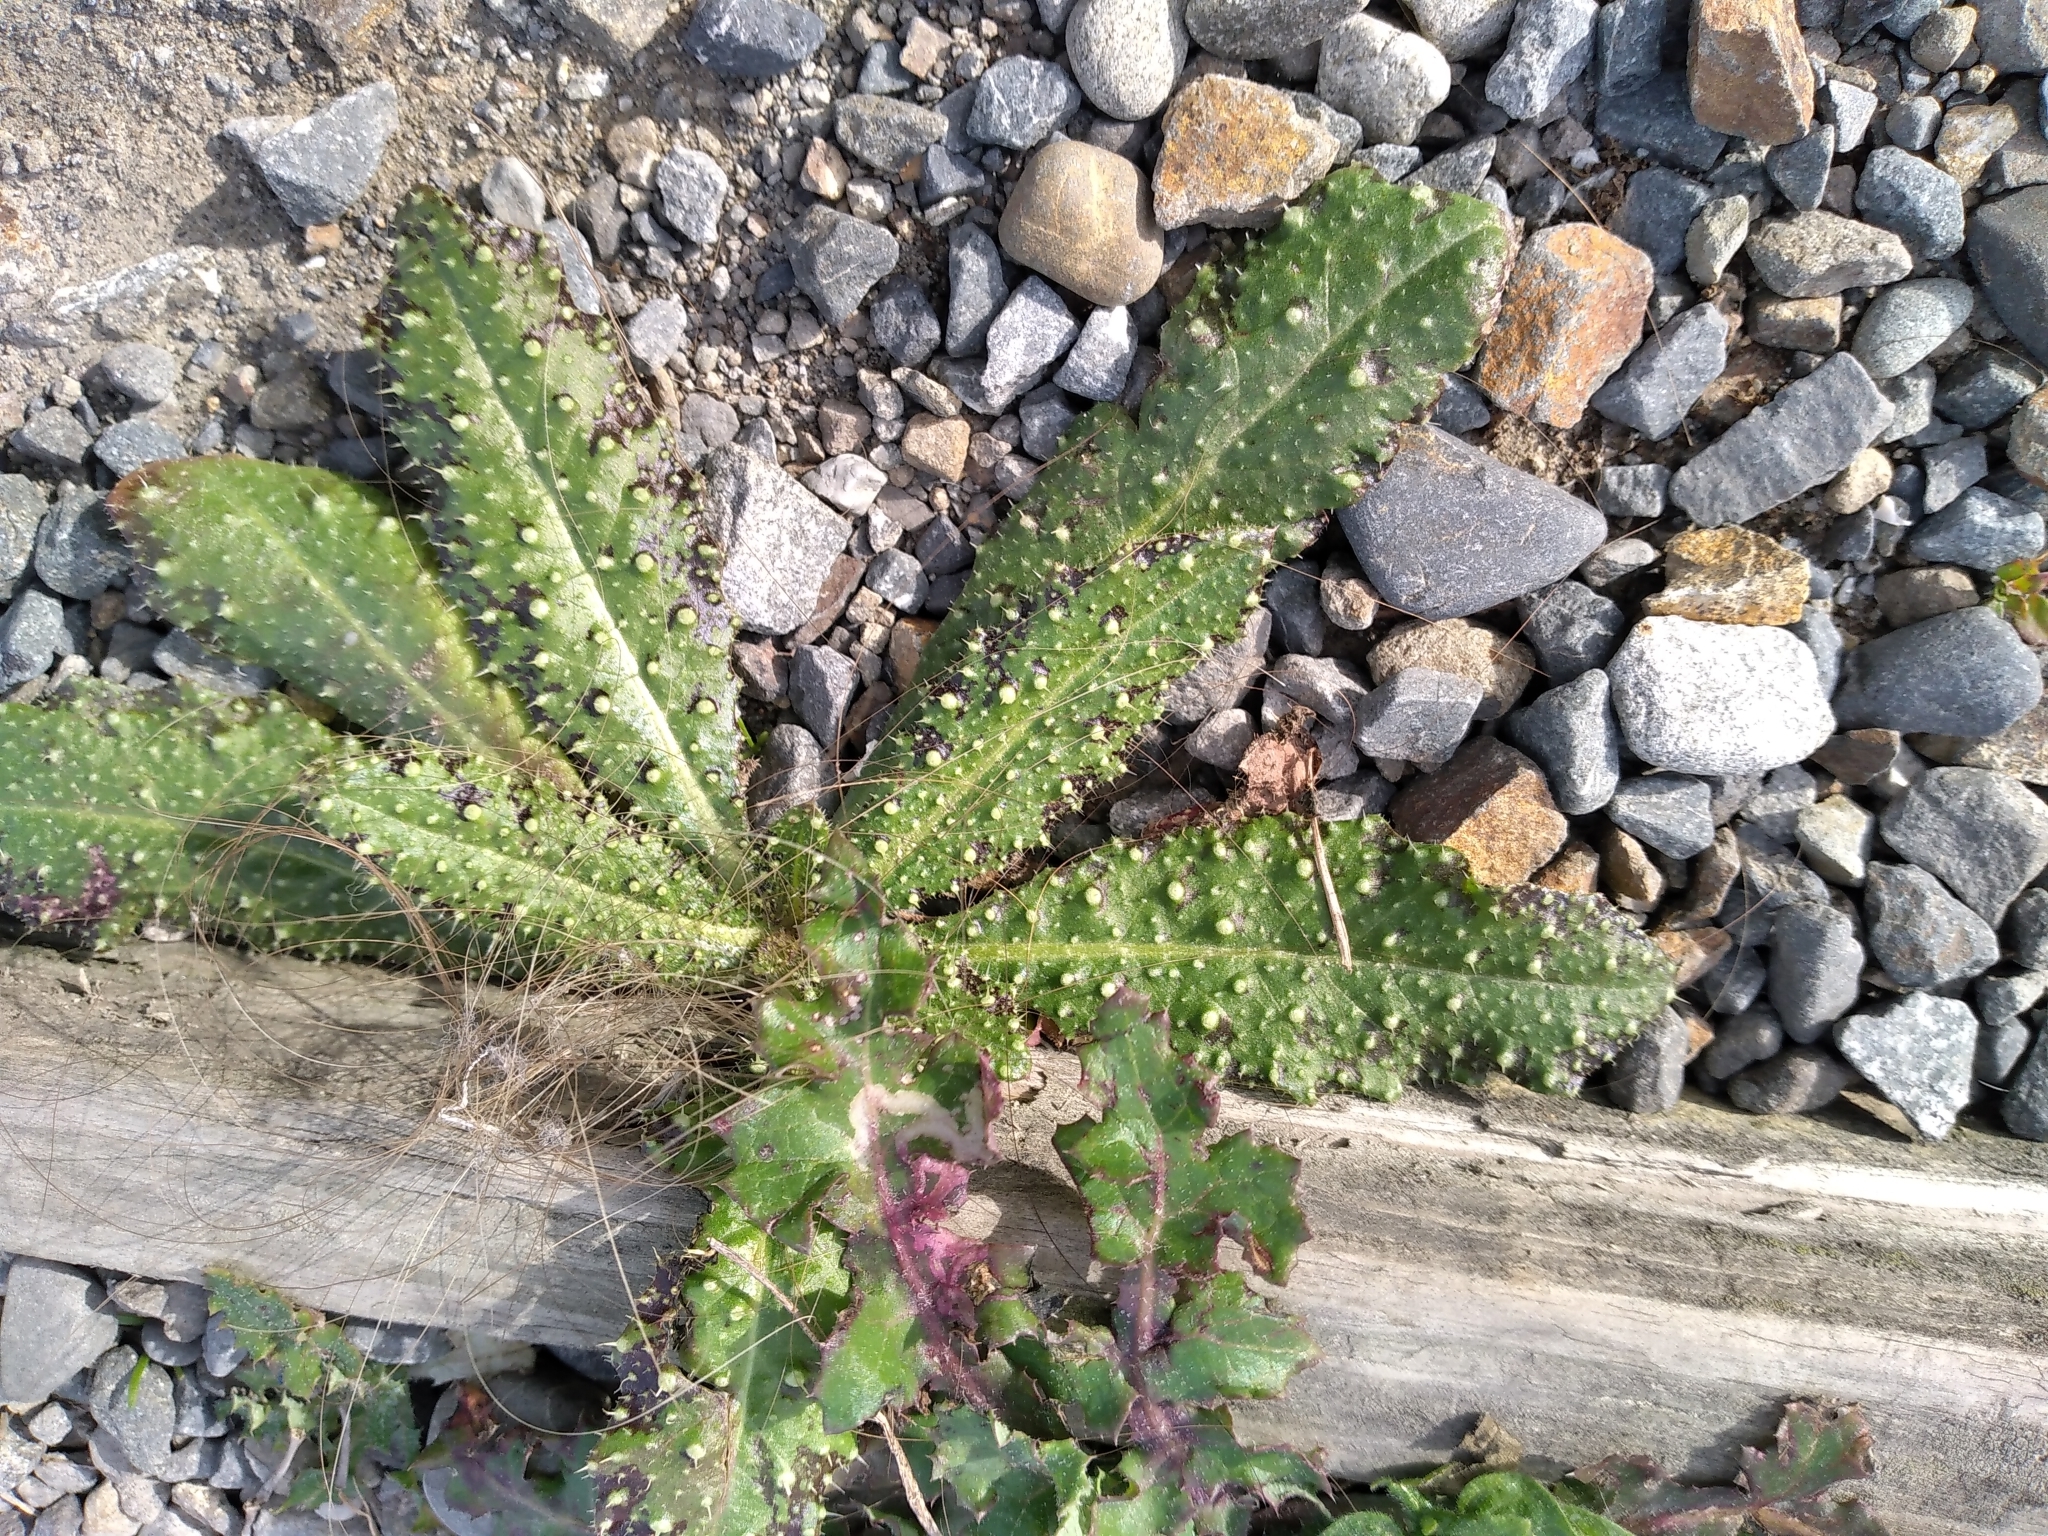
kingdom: Plantae
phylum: Tracheophyta
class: Magnoliopsida
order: Asterales
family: Asteraceae
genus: Helminthotheca
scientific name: Helminthotheca echioides
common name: Ox-tongue
